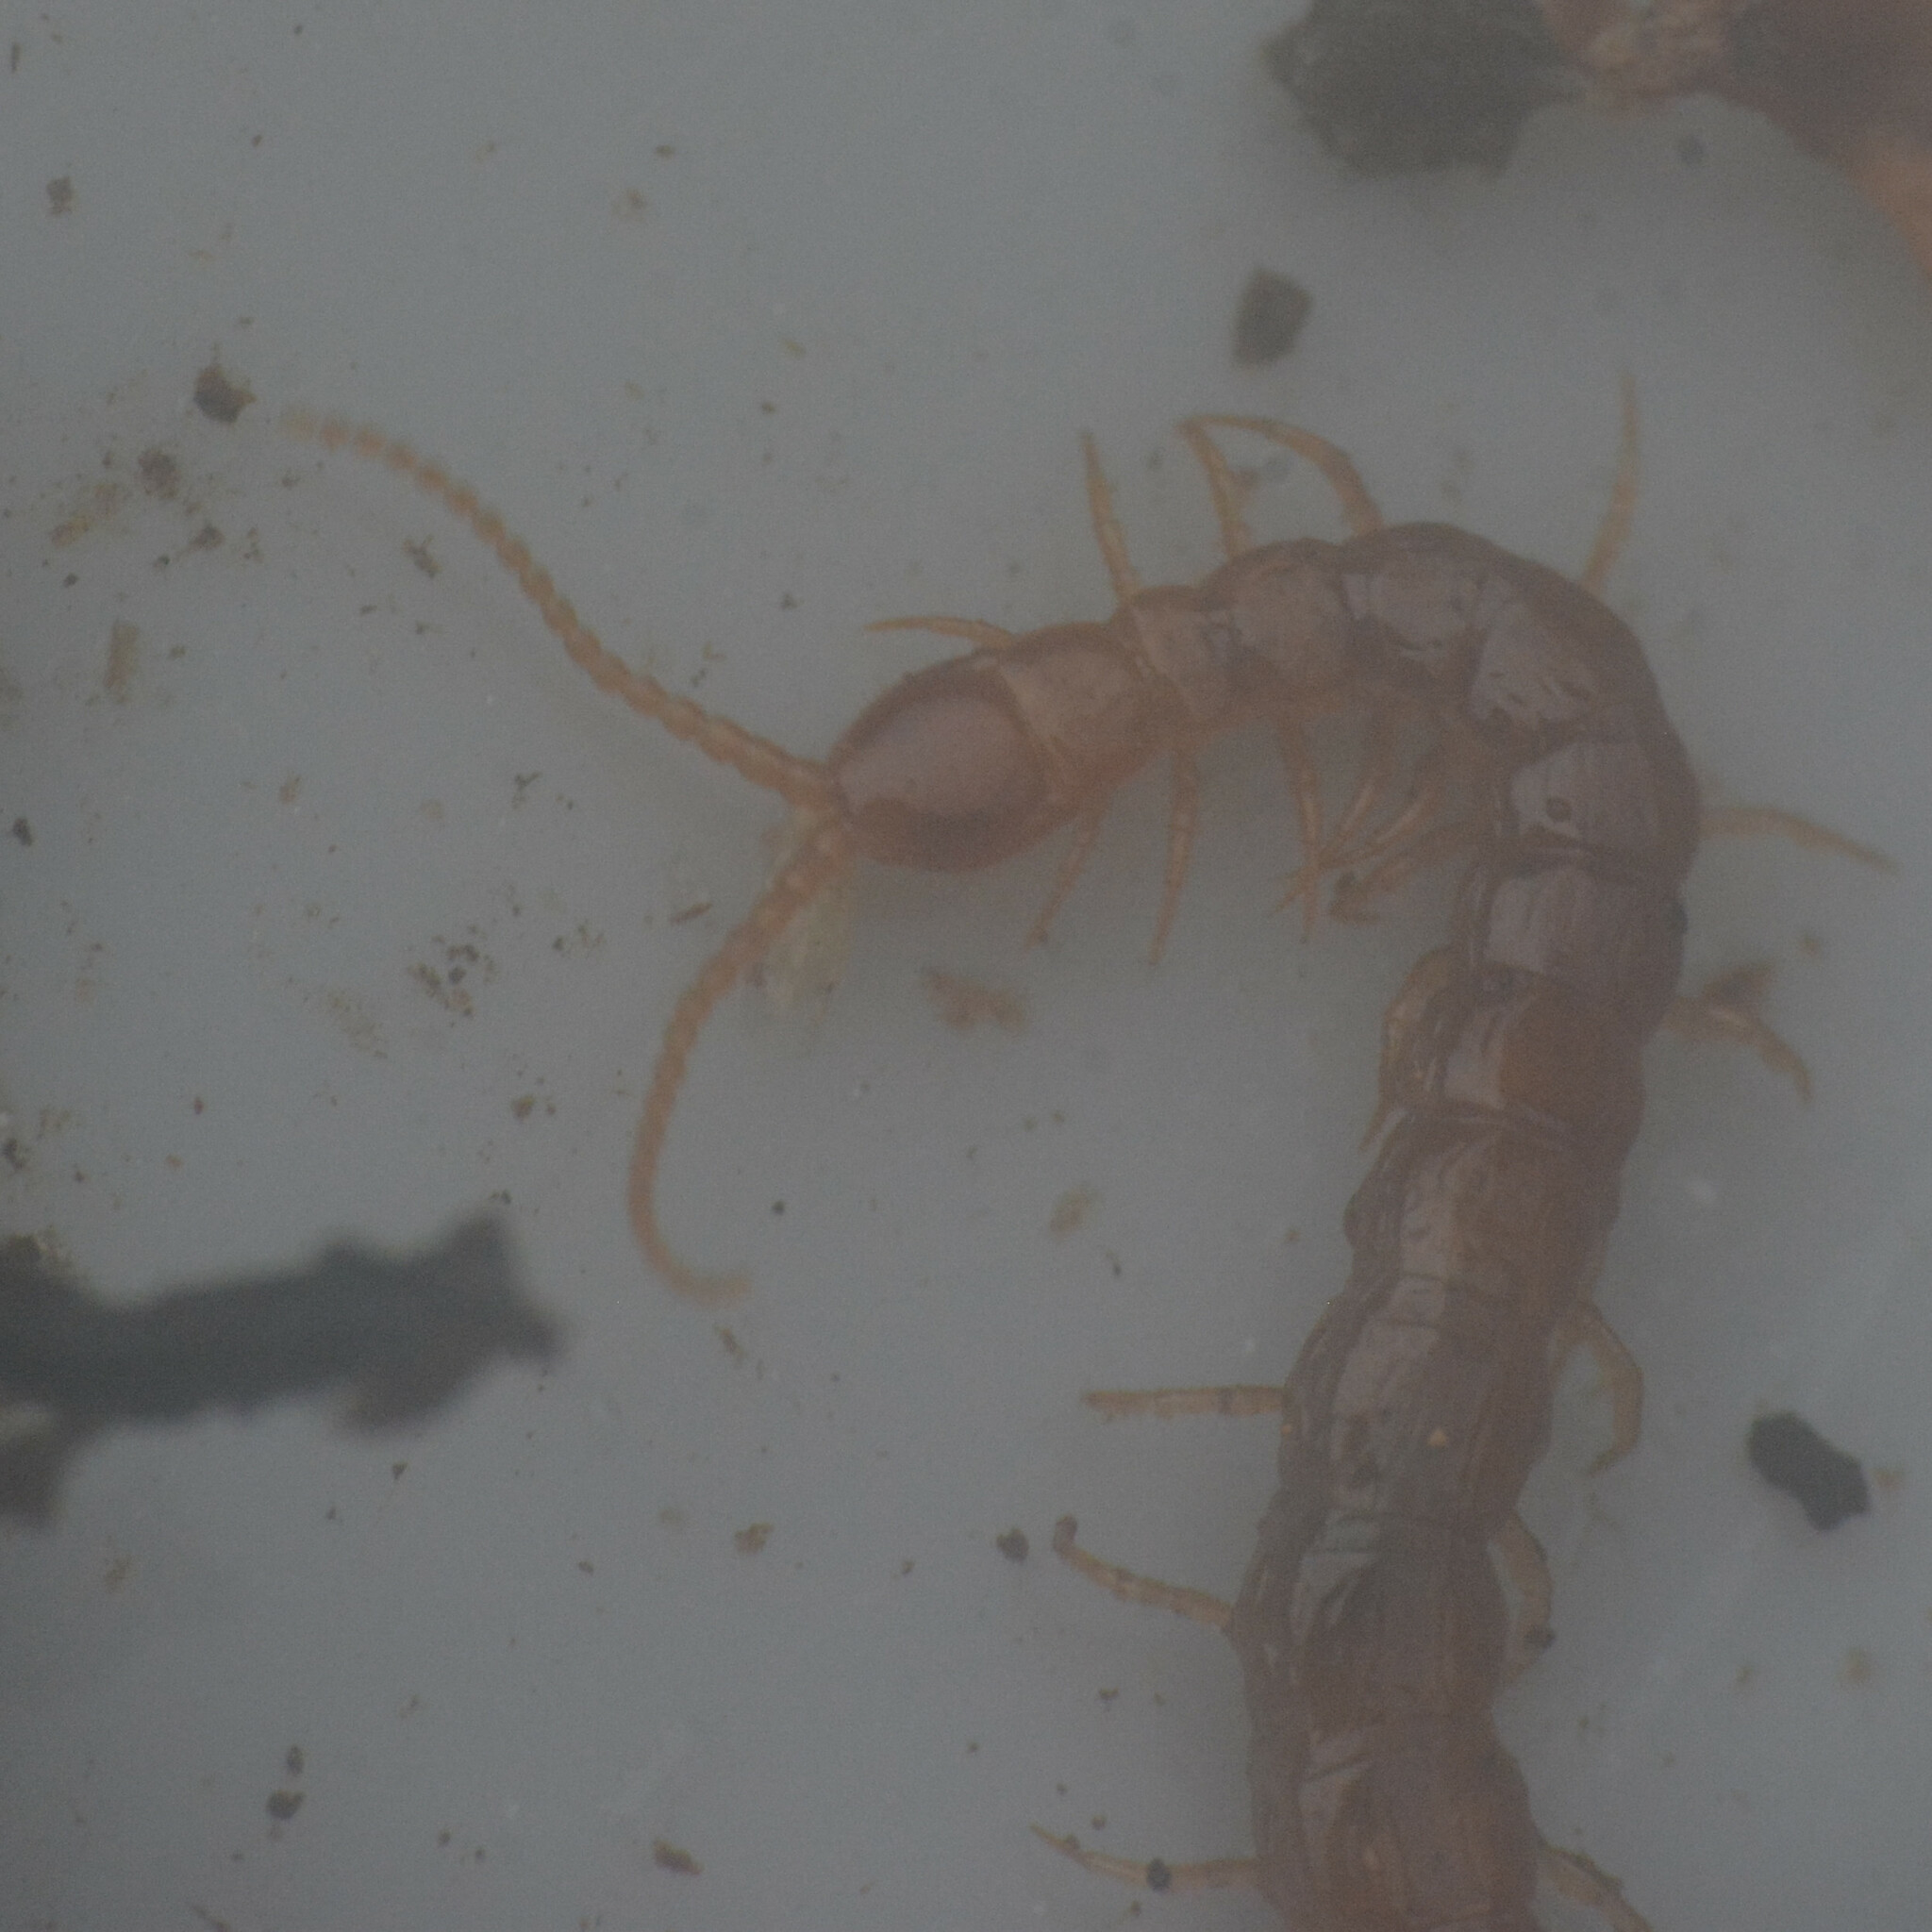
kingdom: Animalia
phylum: Arthropoda
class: Chilopoda
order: Scolopendromorpha
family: Cryptopidae
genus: Cryptops
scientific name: Cryptops hortensis
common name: Centipede
